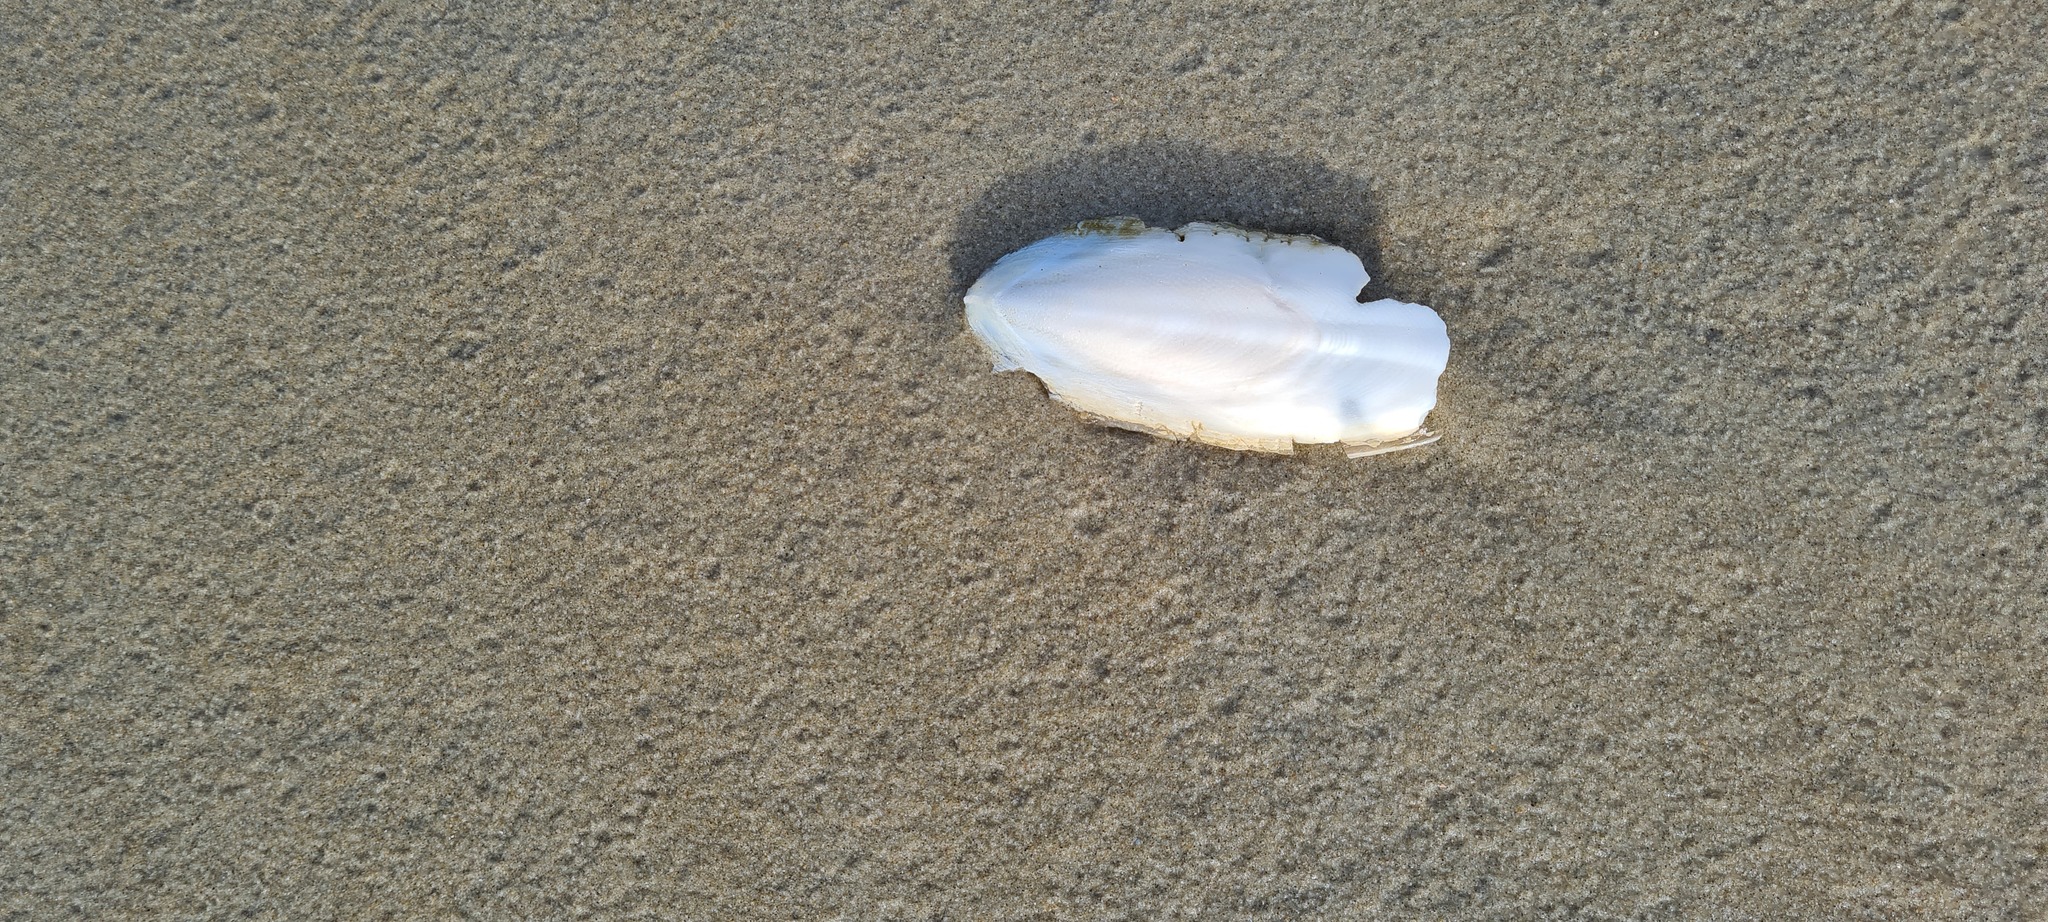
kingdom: Animalia
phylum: Mollusca
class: Cephalopoda
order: Sepiida
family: Sepiidae
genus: Sepia
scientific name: Sepia officinalis
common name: Common cuttlefish
